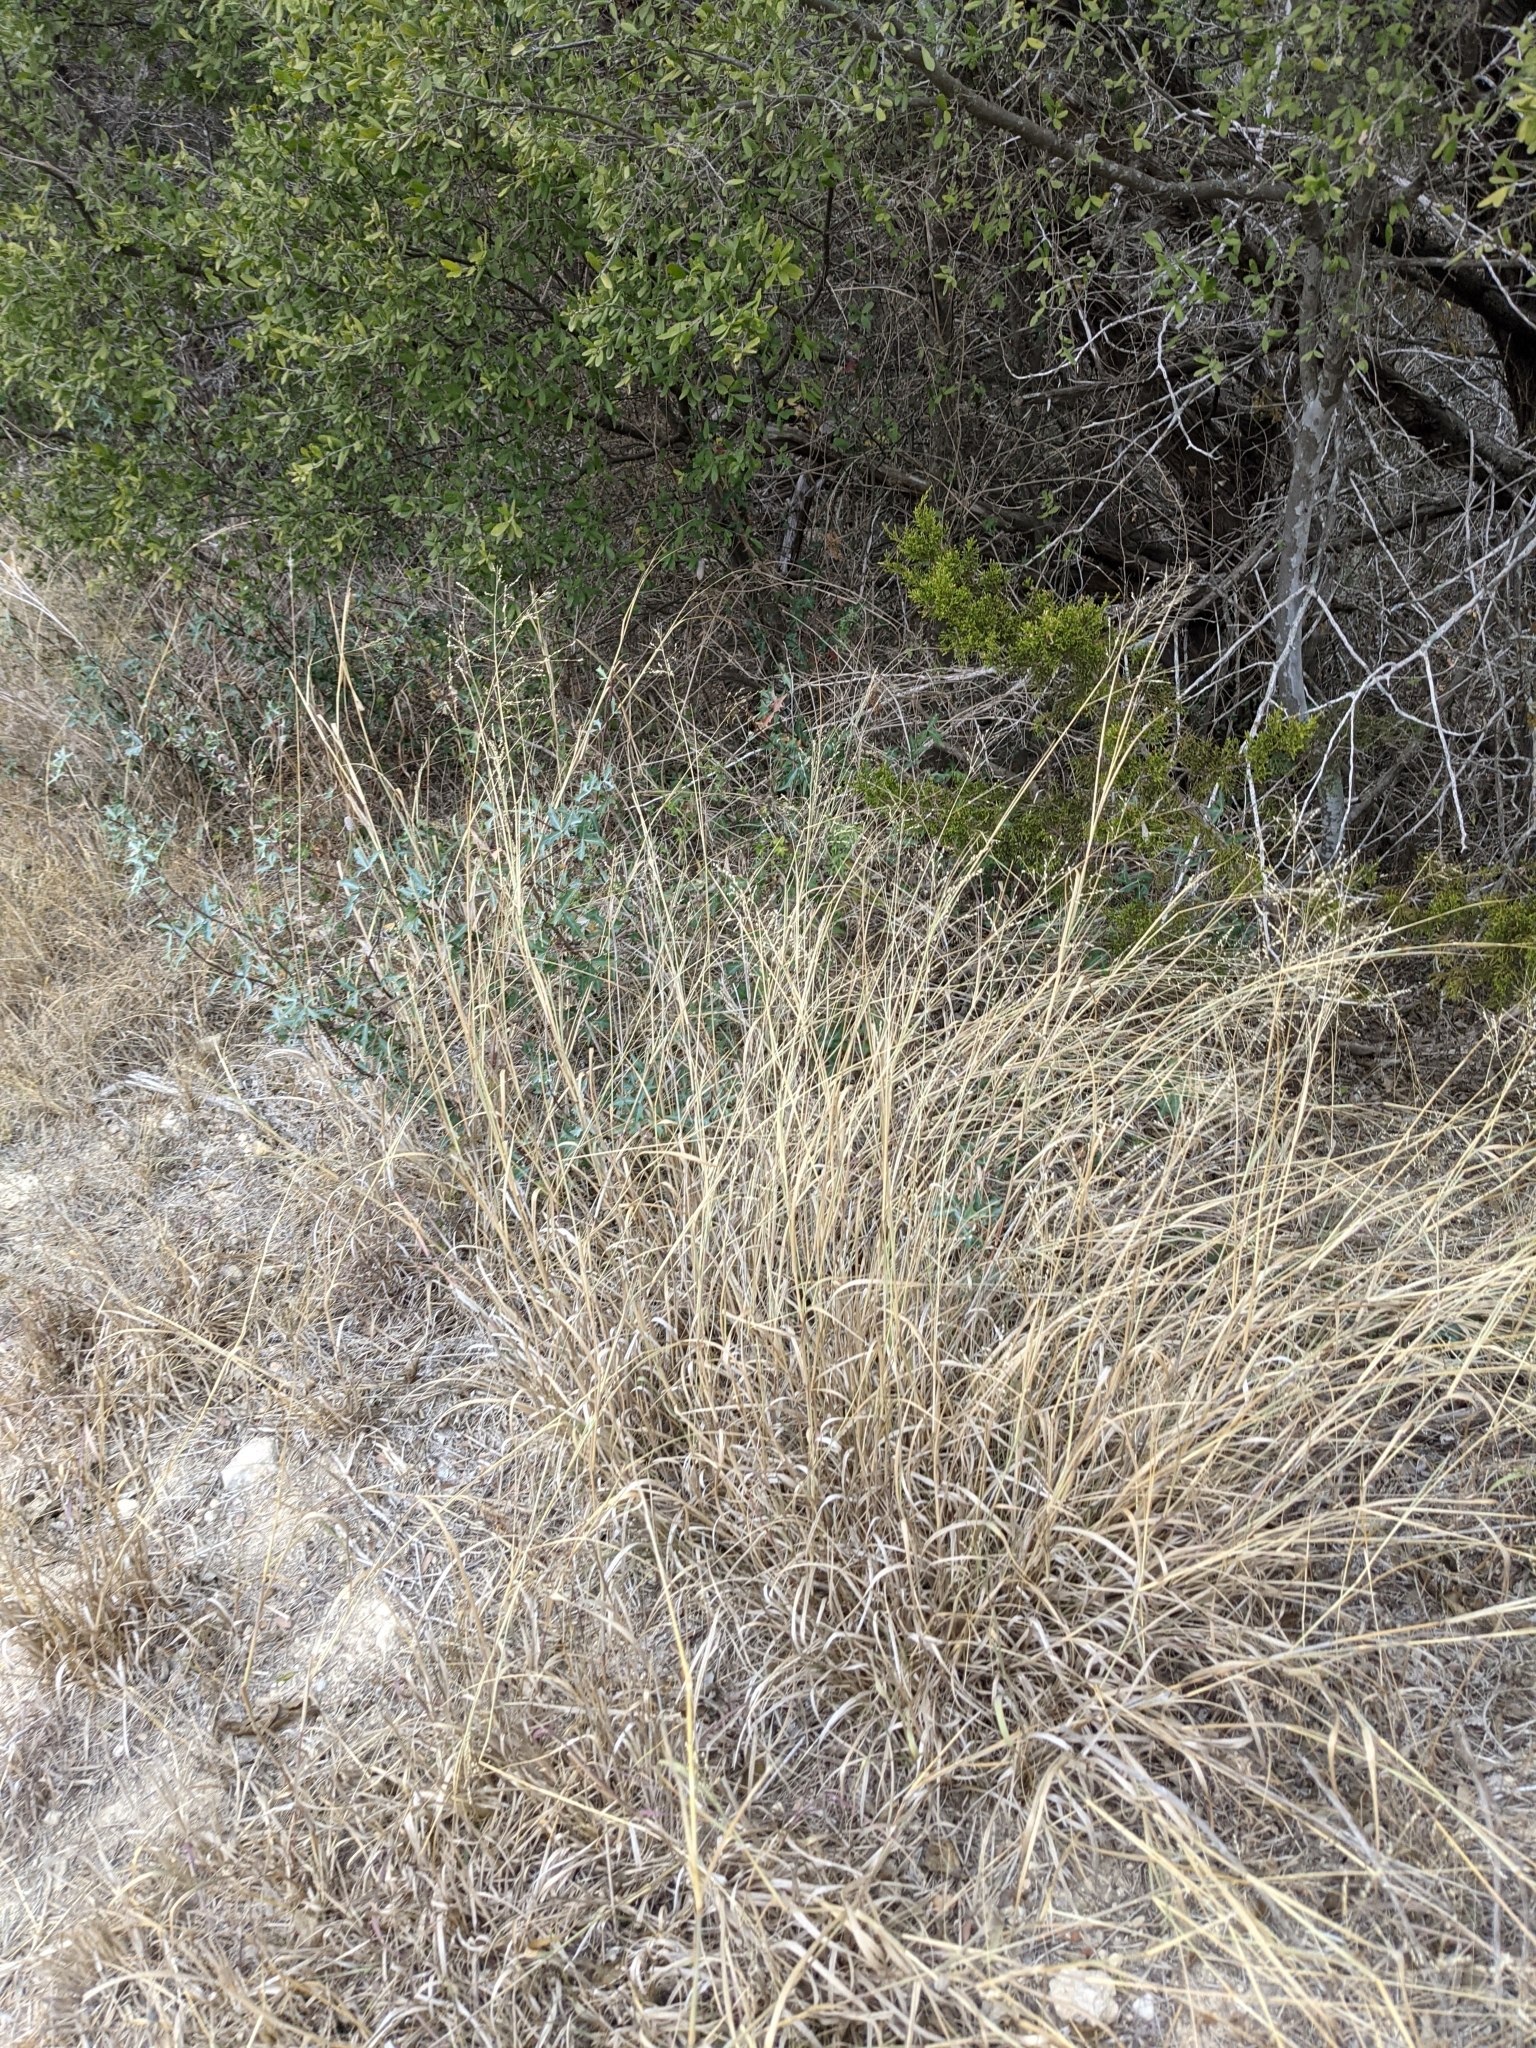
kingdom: Plantae
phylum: Tracheophyta
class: Liliopsida
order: Poales
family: Poaceae
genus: Panicum
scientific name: Panicum coloratum
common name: Kleingrass
